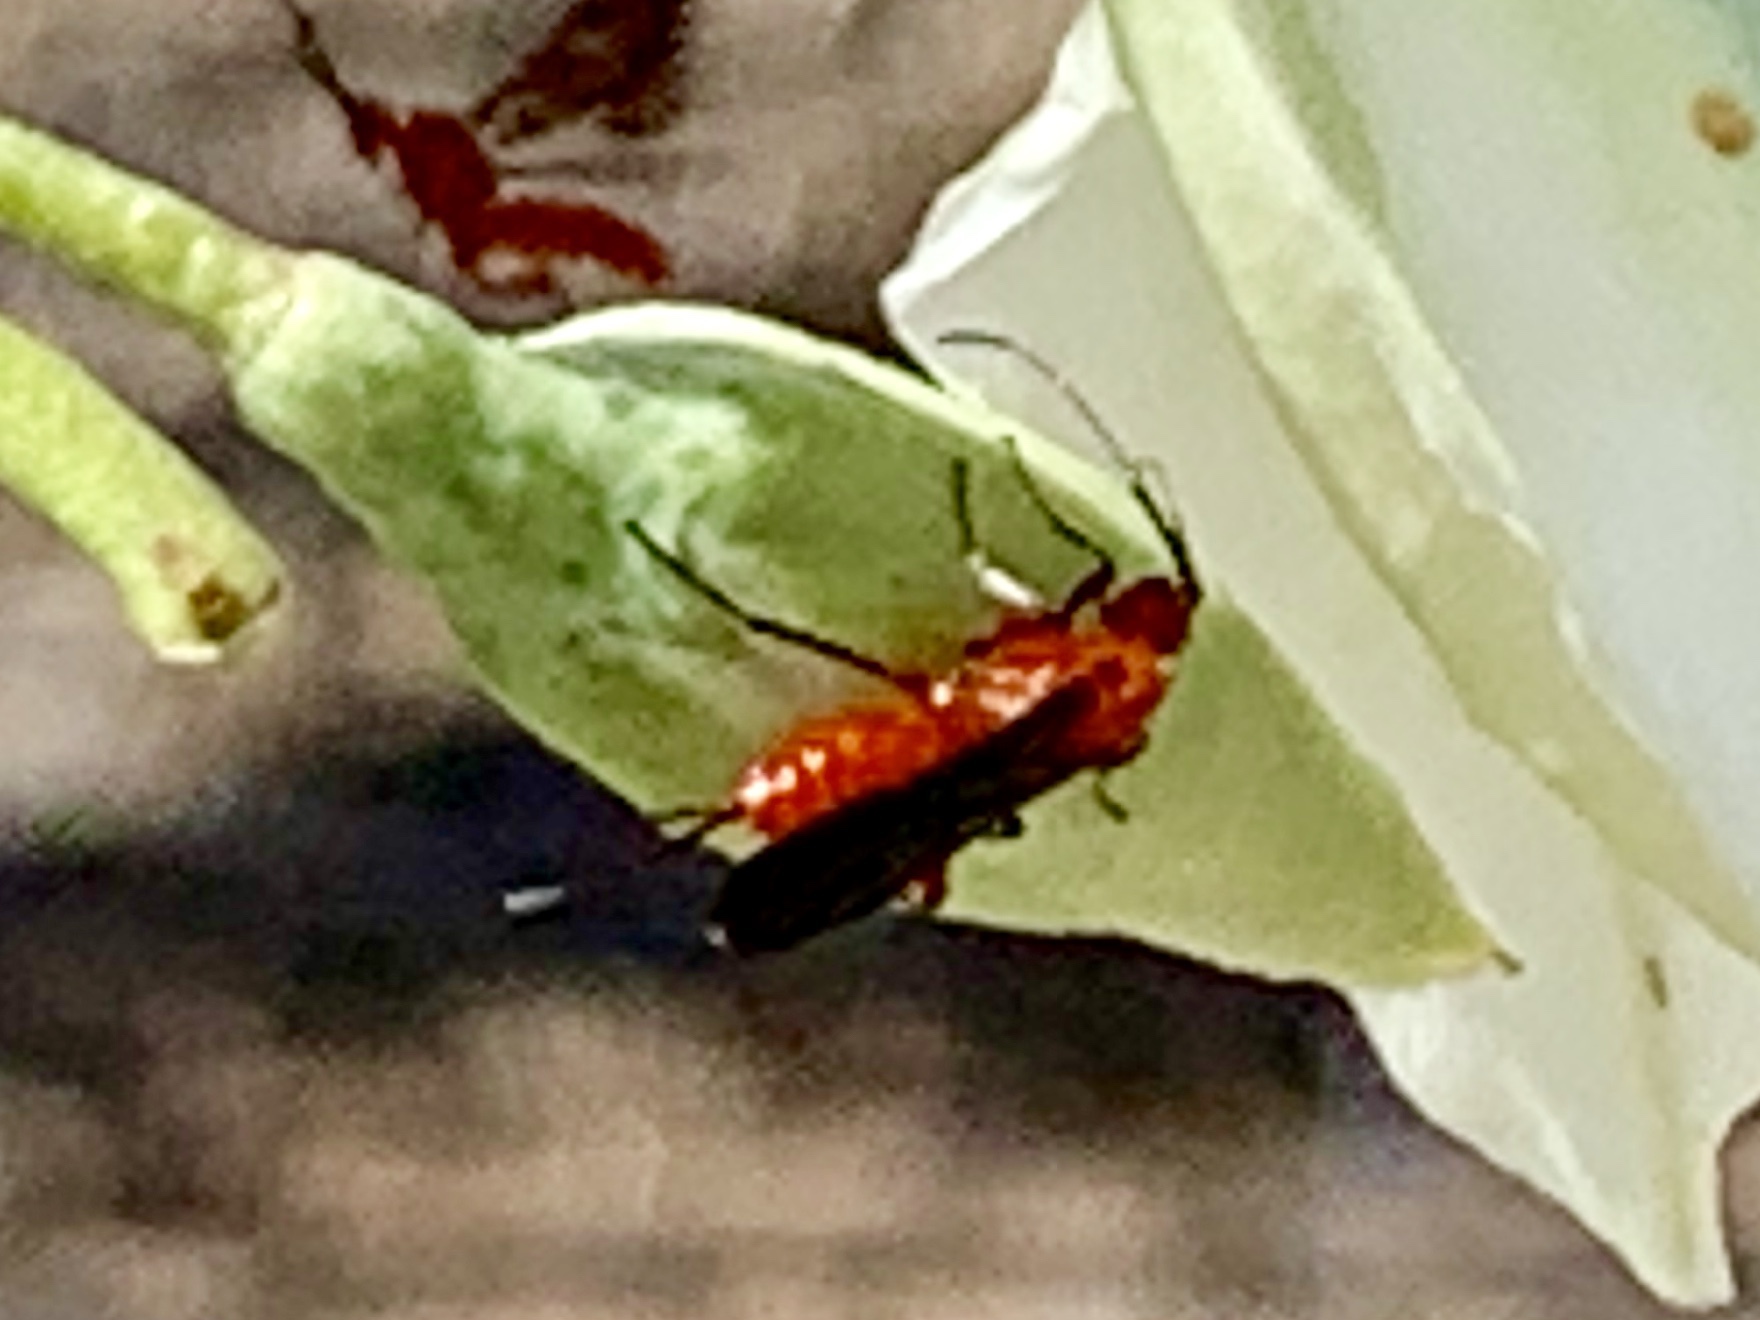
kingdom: Animalia
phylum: Arthropoda
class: Insecta
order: Hymenoptera
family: Braconidae
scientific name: Braconidae
